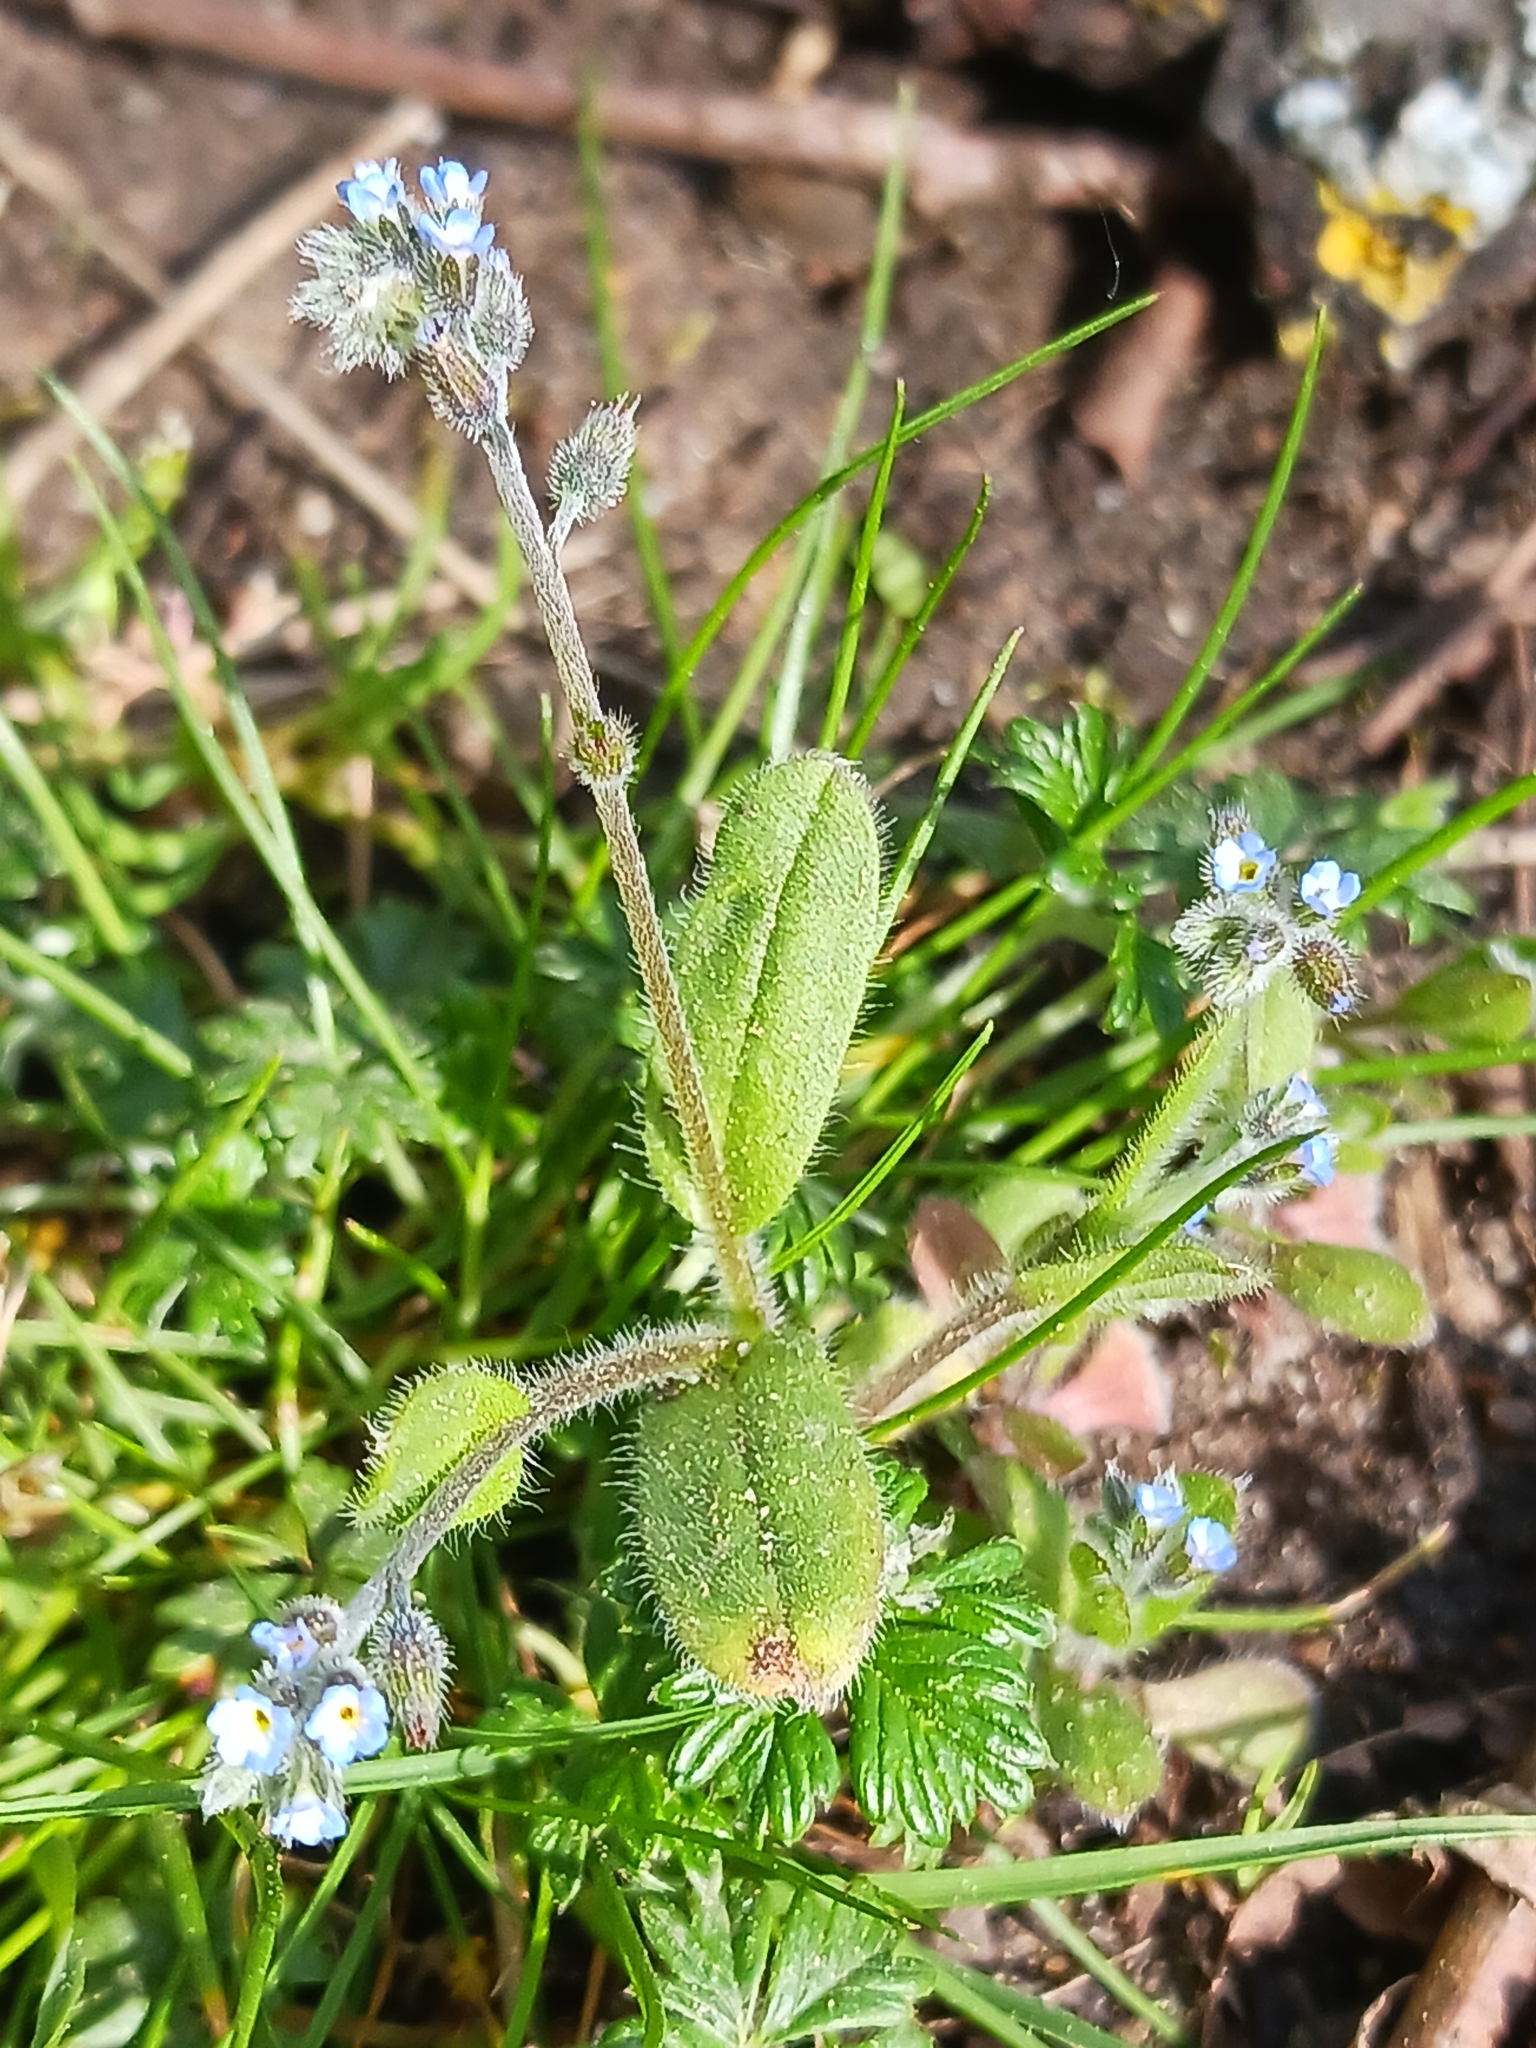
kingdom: Plantae
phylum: Tracheophyta
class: Magnoliopsida
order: Boraginales
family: Boraginaceae
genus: Myosotis
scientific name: Myosotis ramosissima
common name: Early forget-me-not
